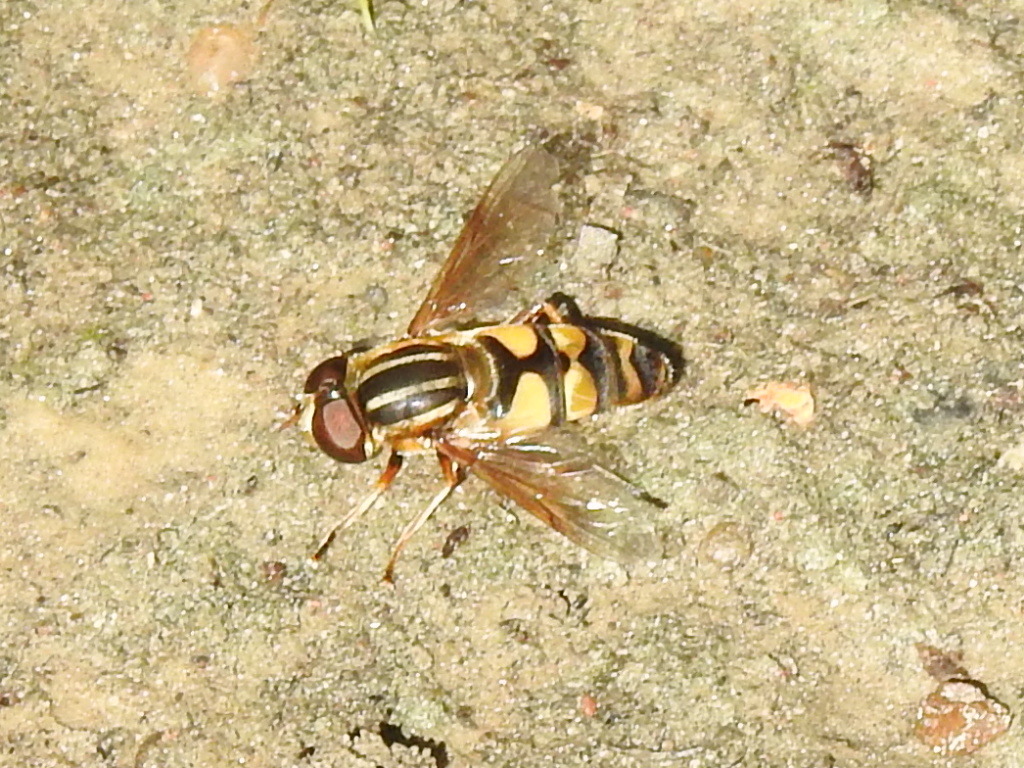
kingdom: Animalia
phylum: Arthropoda
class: Insecta
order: Diptera
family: Syrphidae
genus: Helophilus
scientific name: Helophilus fasciatus
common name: Narrow-headed marsh fly
